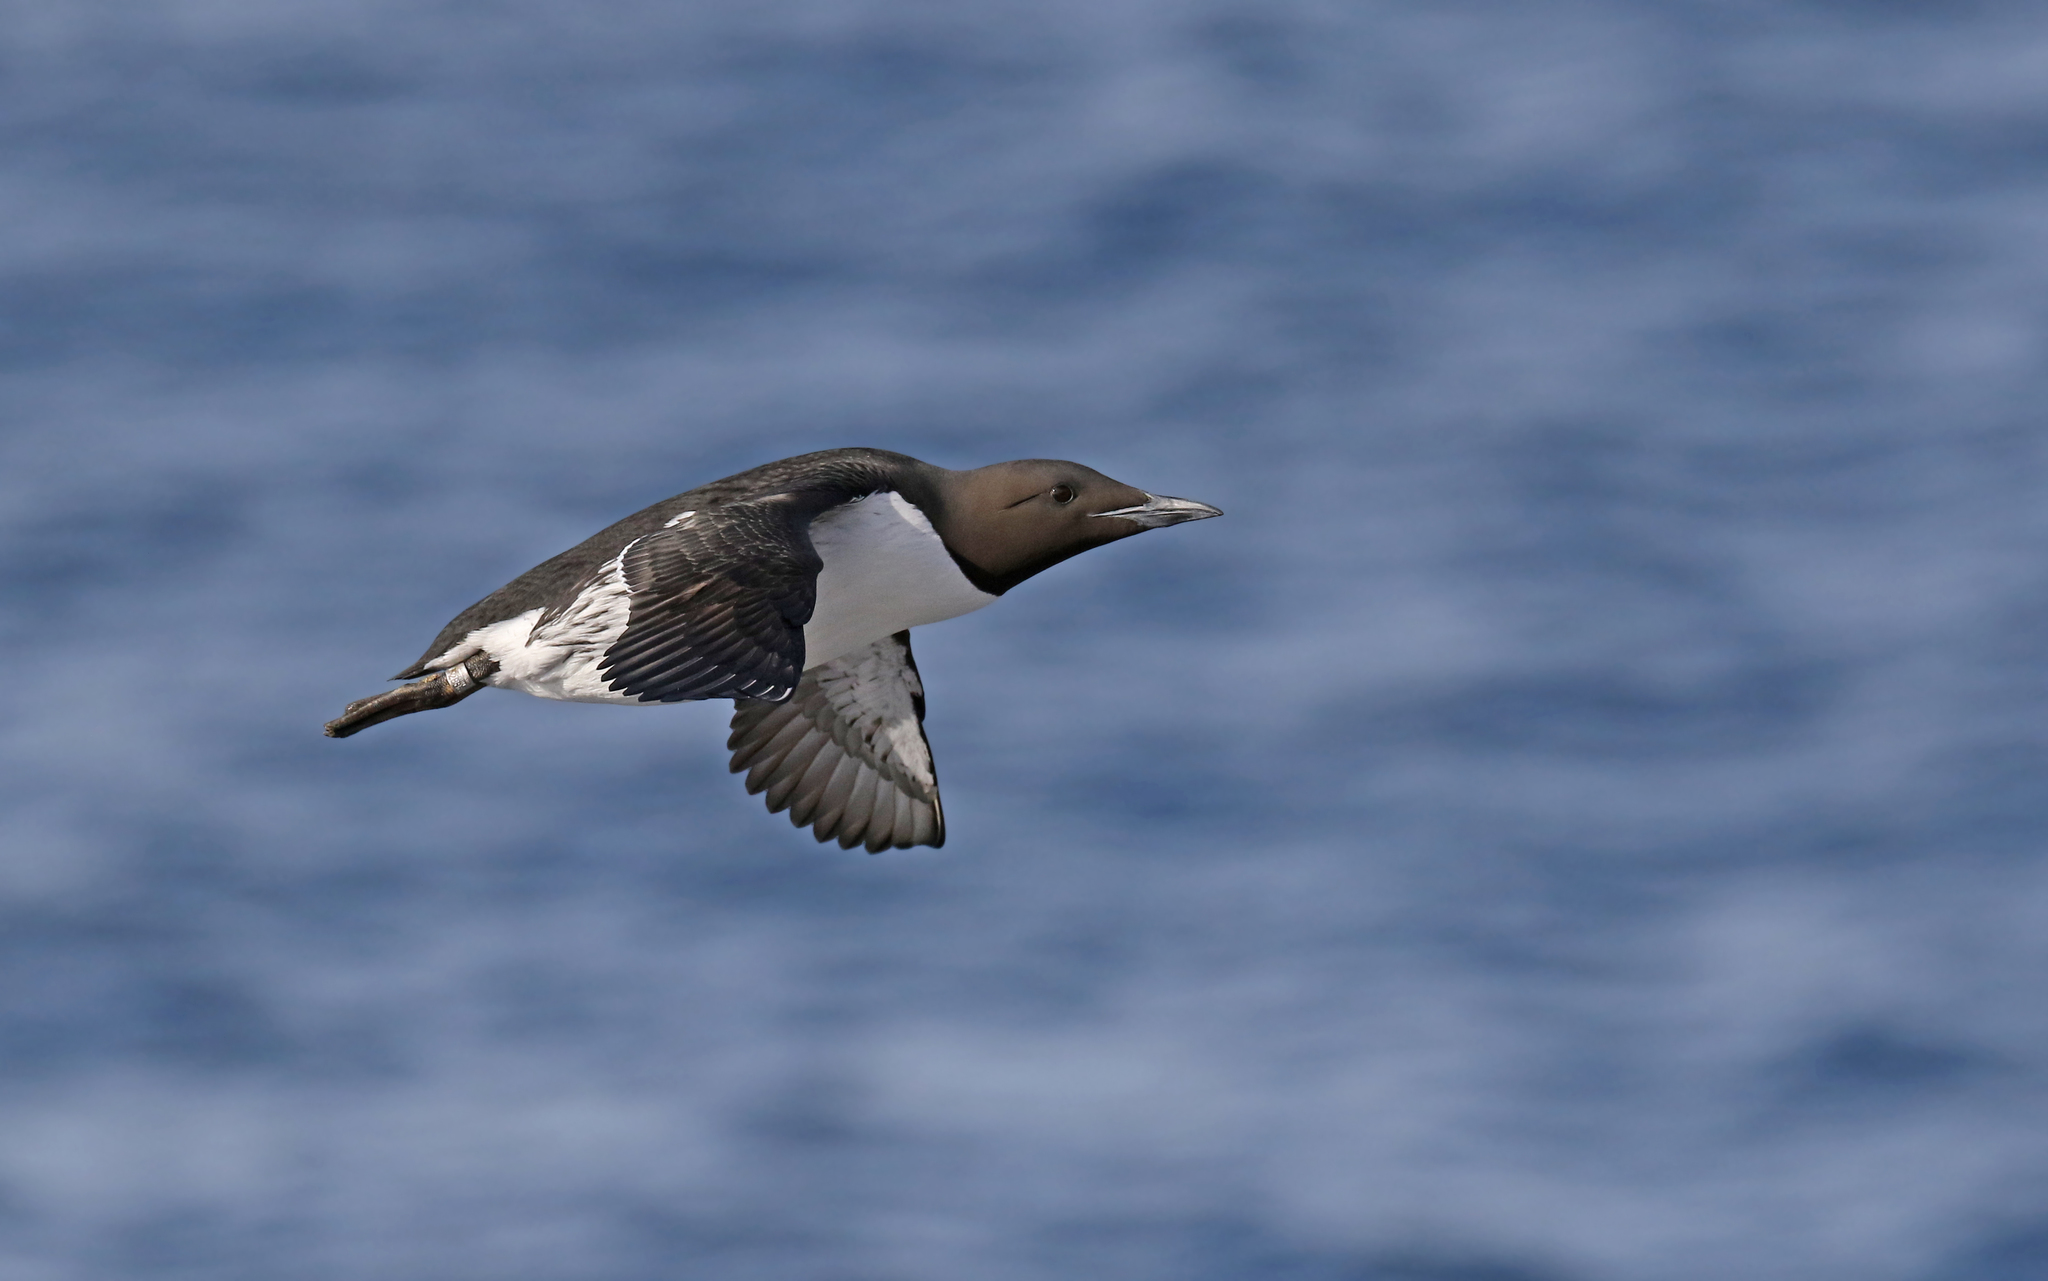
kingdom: Animalia
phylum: Chordata
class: Aves
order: Charadriiformes
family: Alcidae
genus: Uria
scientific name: Uria aalge
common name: Common murre
